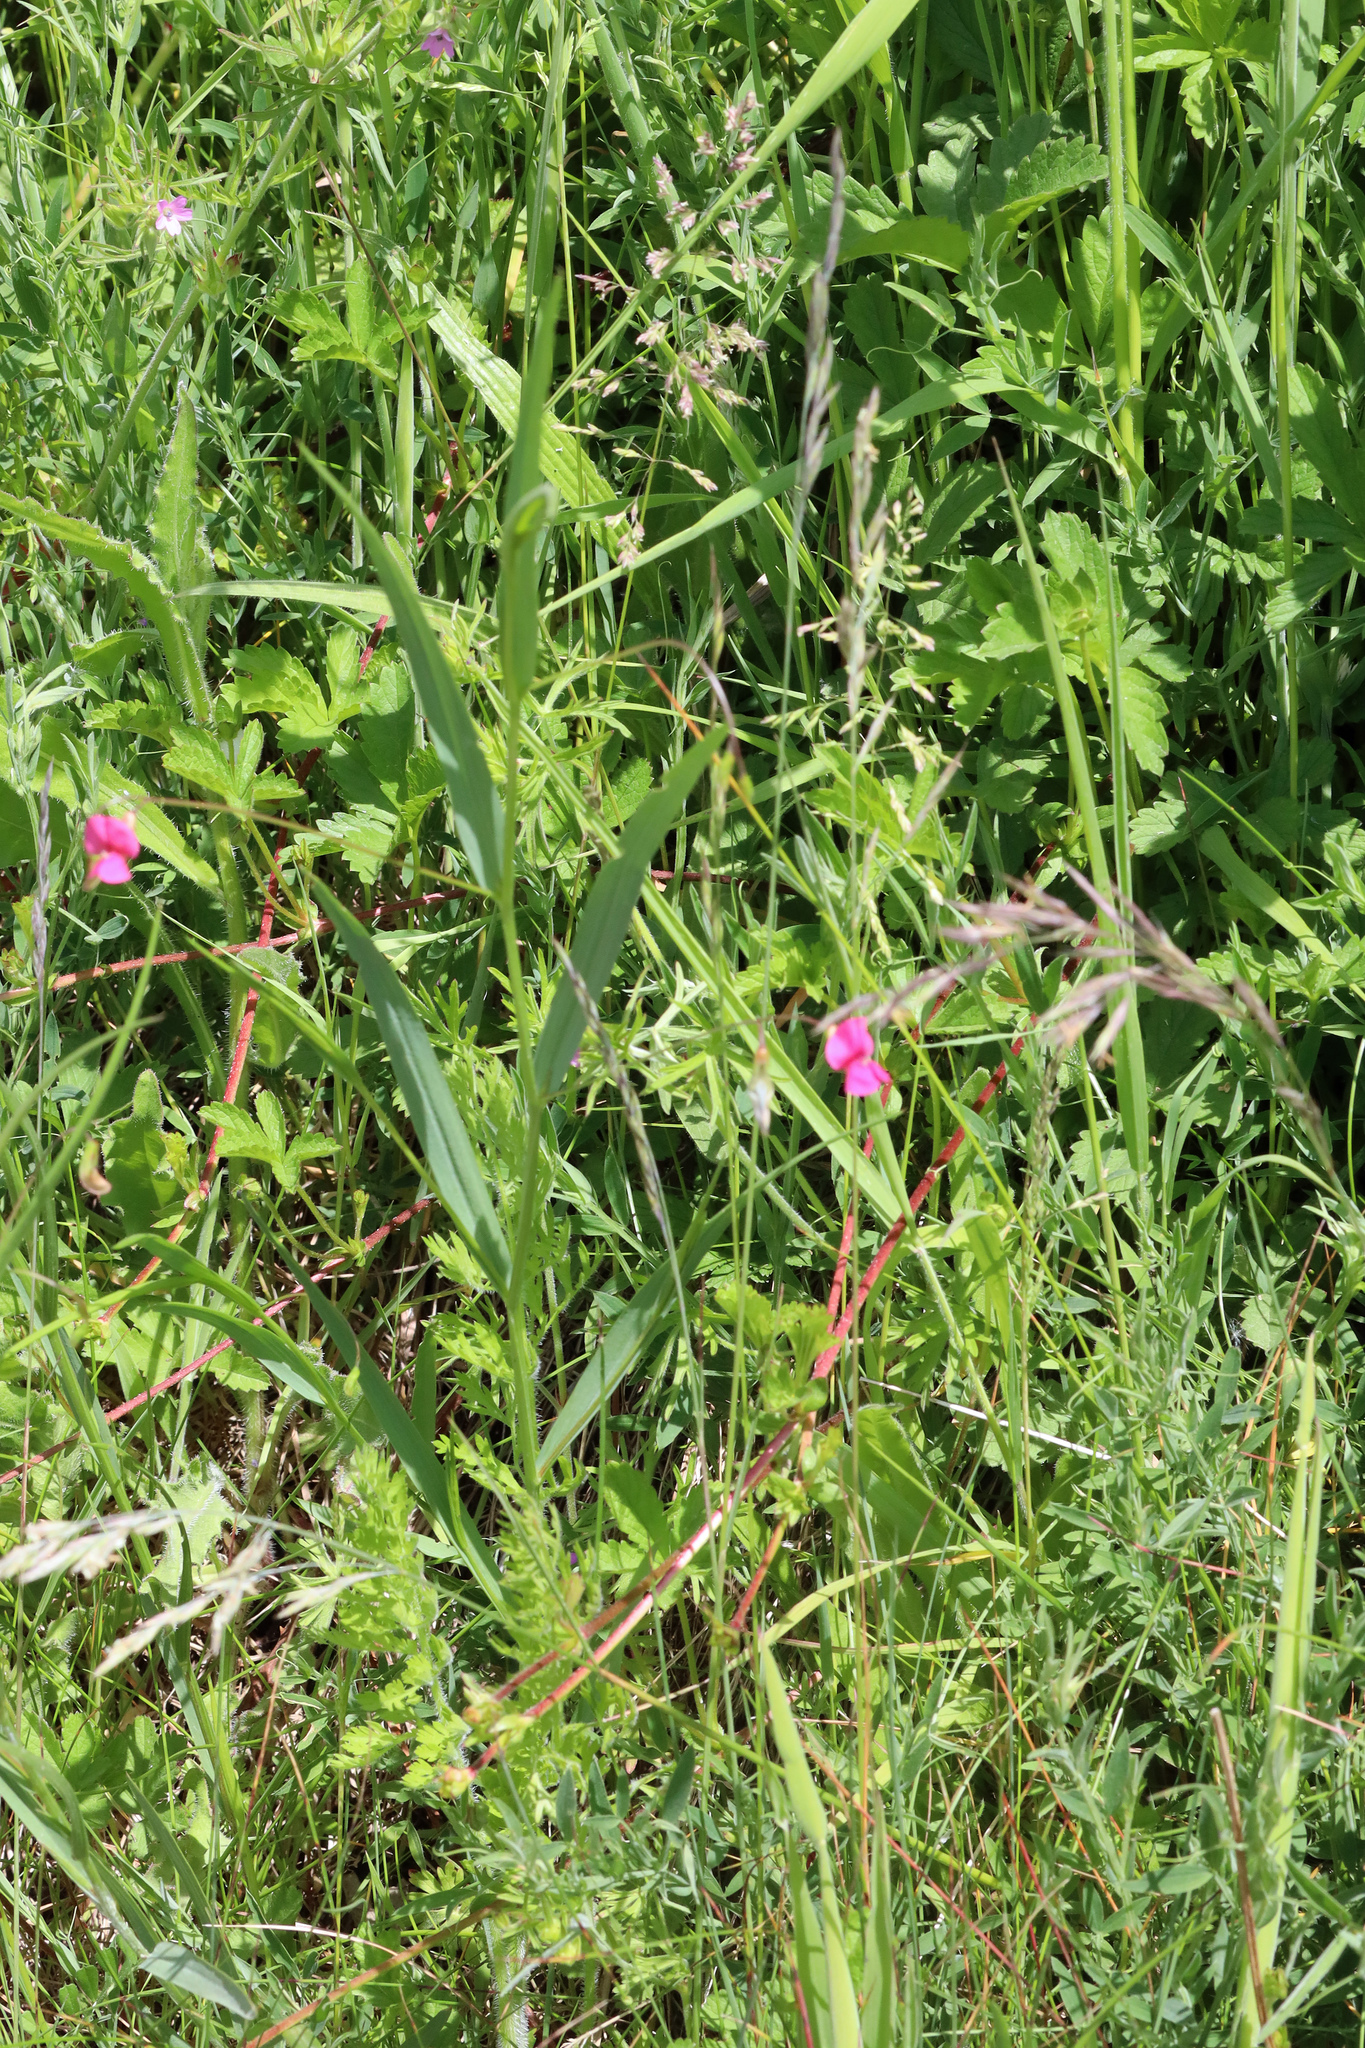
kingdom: Plantae
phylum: Tracheophyta
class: Magnoliopsida
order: Fabales
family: Fabaceae
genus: Lathyrus
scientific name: Lathyrus nissolia
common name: Grass vetchling
